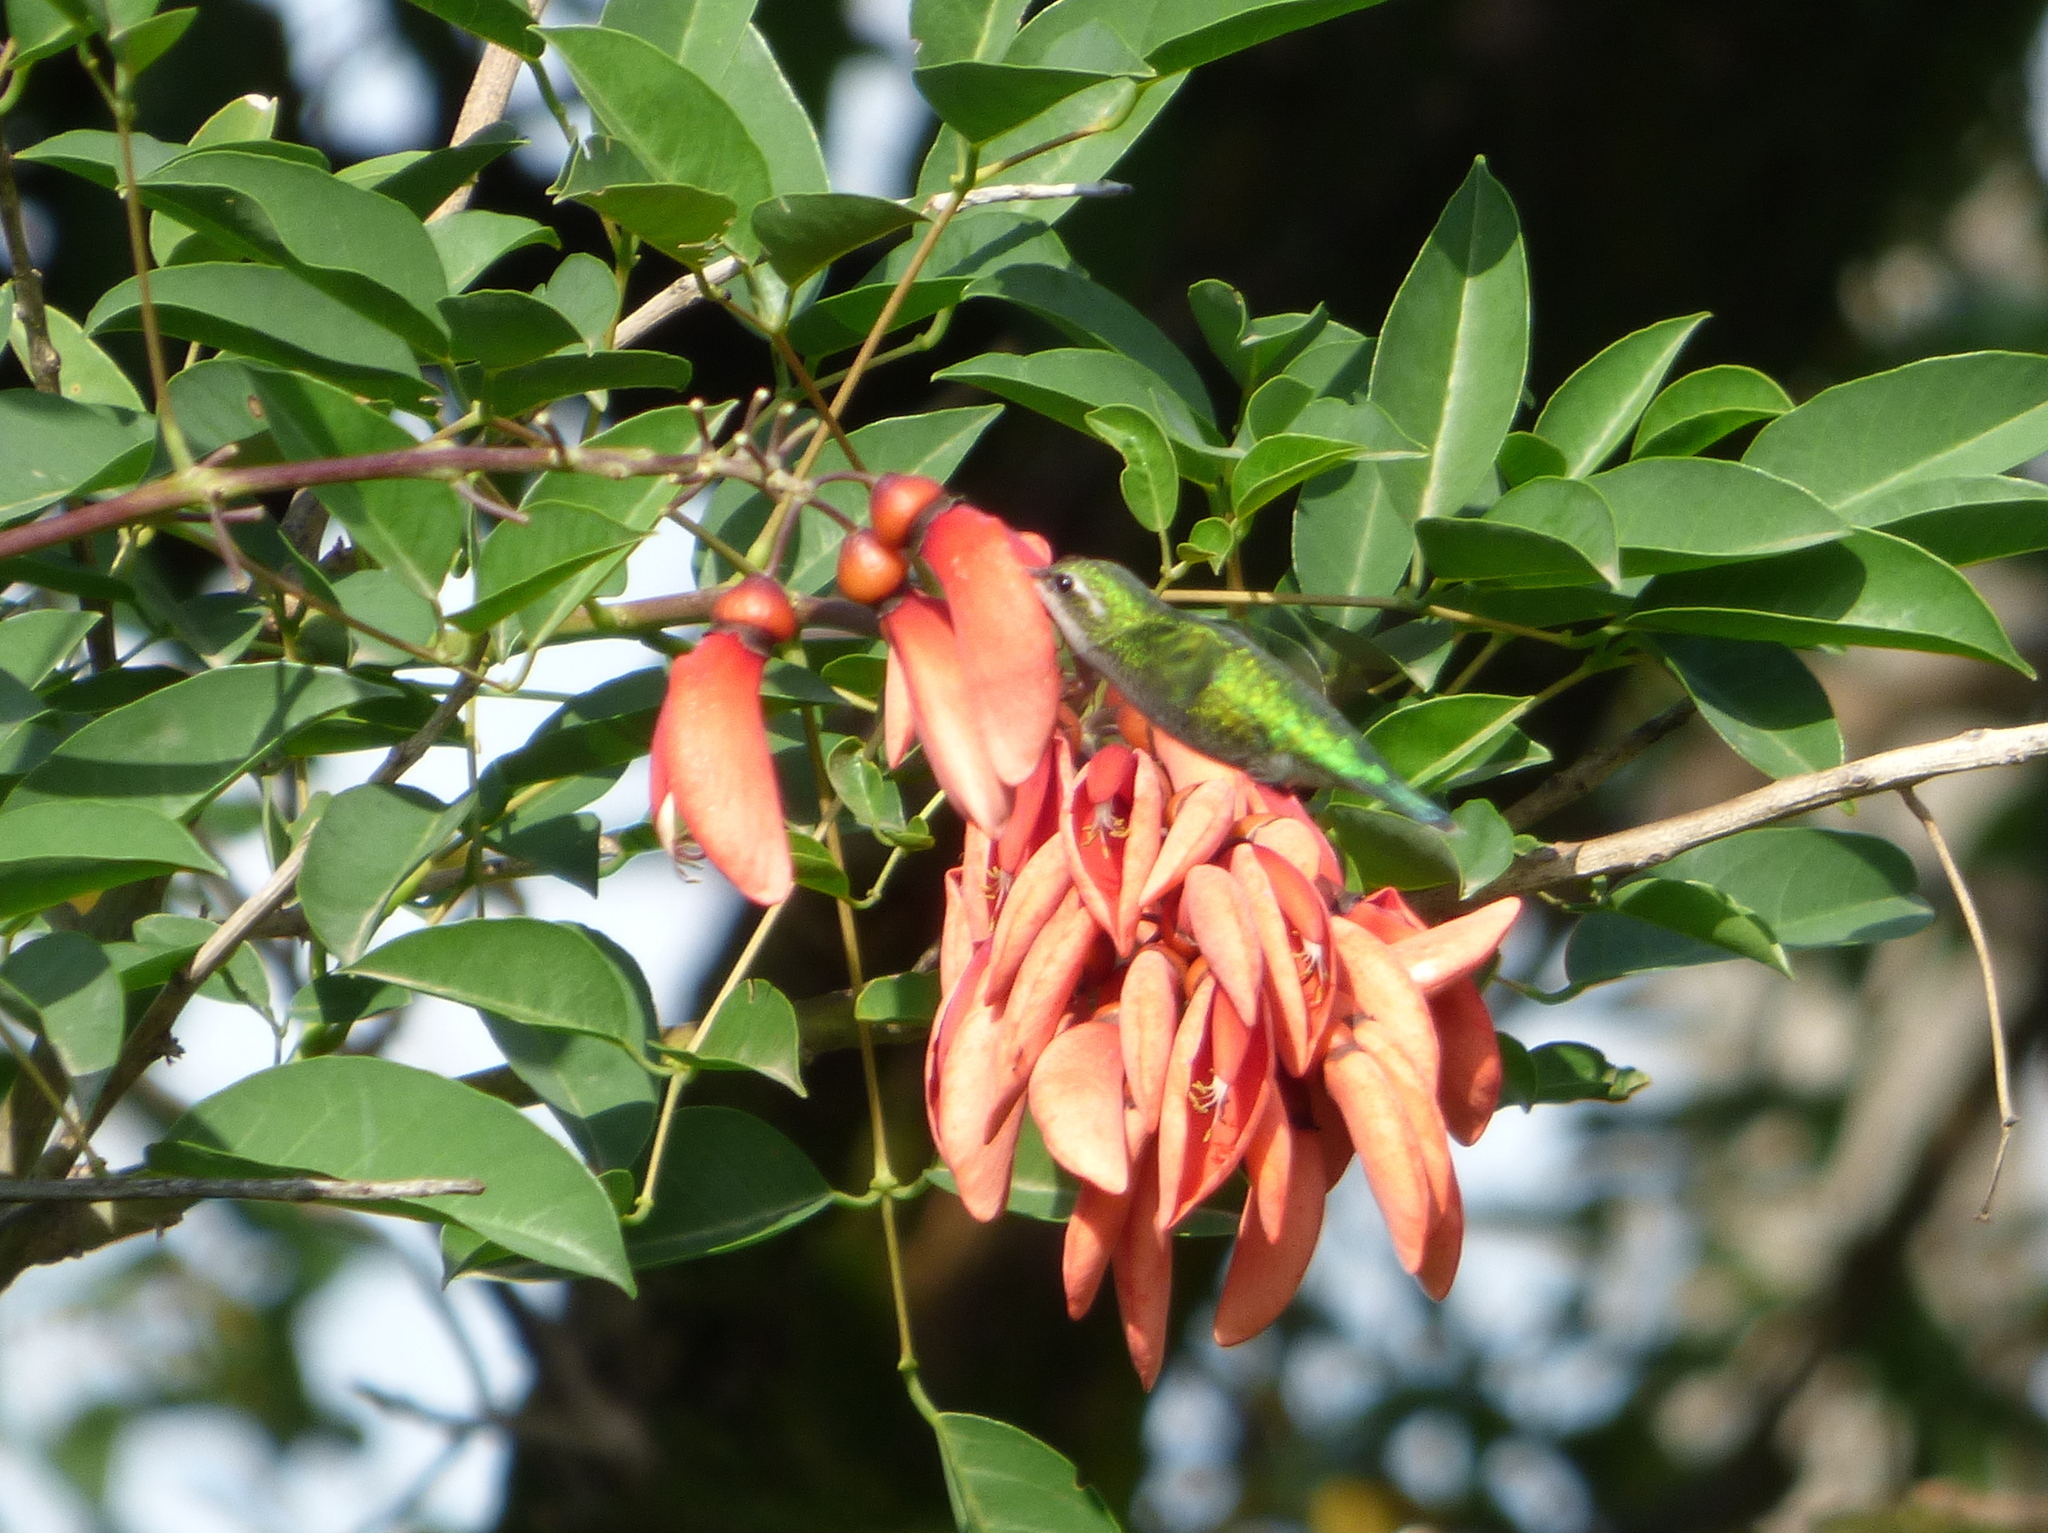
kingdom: Animalia
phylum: Chordata
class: Aves
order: Apodiformes
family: Trochilidae
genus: Chlorostilbon
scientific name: Chlorostilbon lucidus
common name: Glittering-bellied emerald
